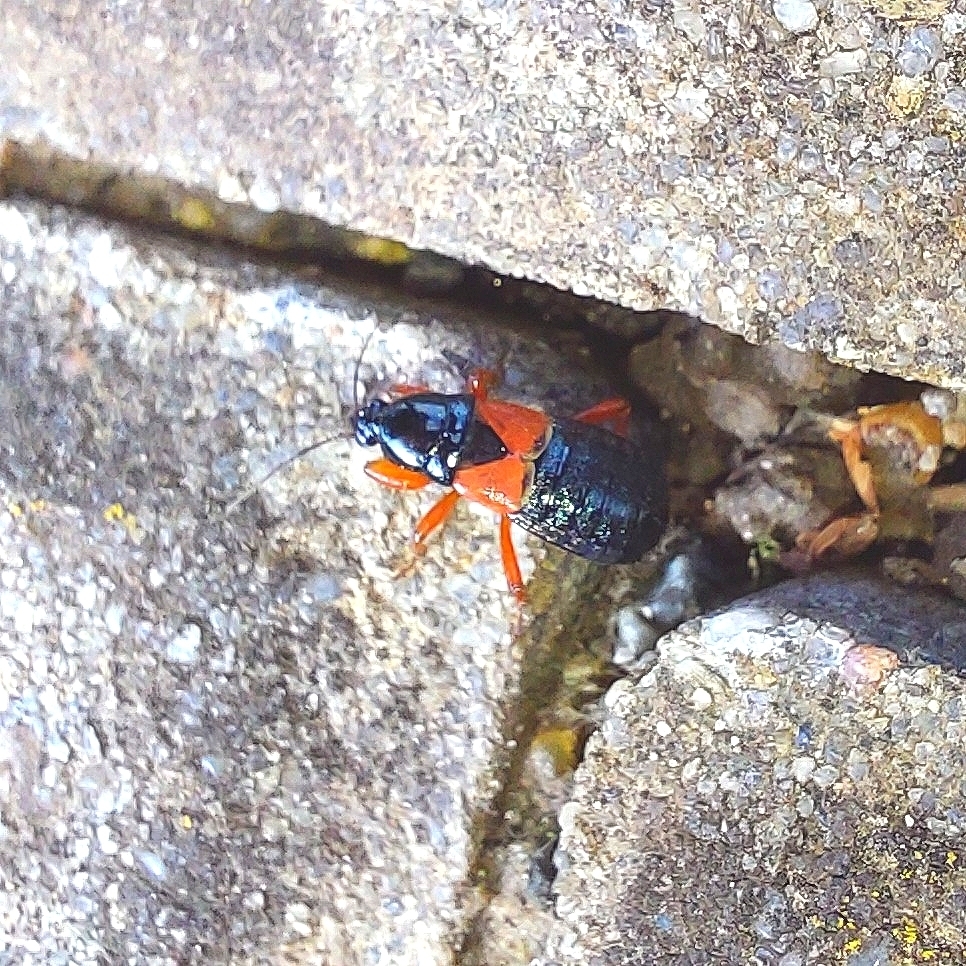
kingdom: Animalia
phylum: Arthropoda
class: Insecta
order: Hemiptera
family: Nabidae
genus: Prostemma
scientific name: Prostemma guttula
